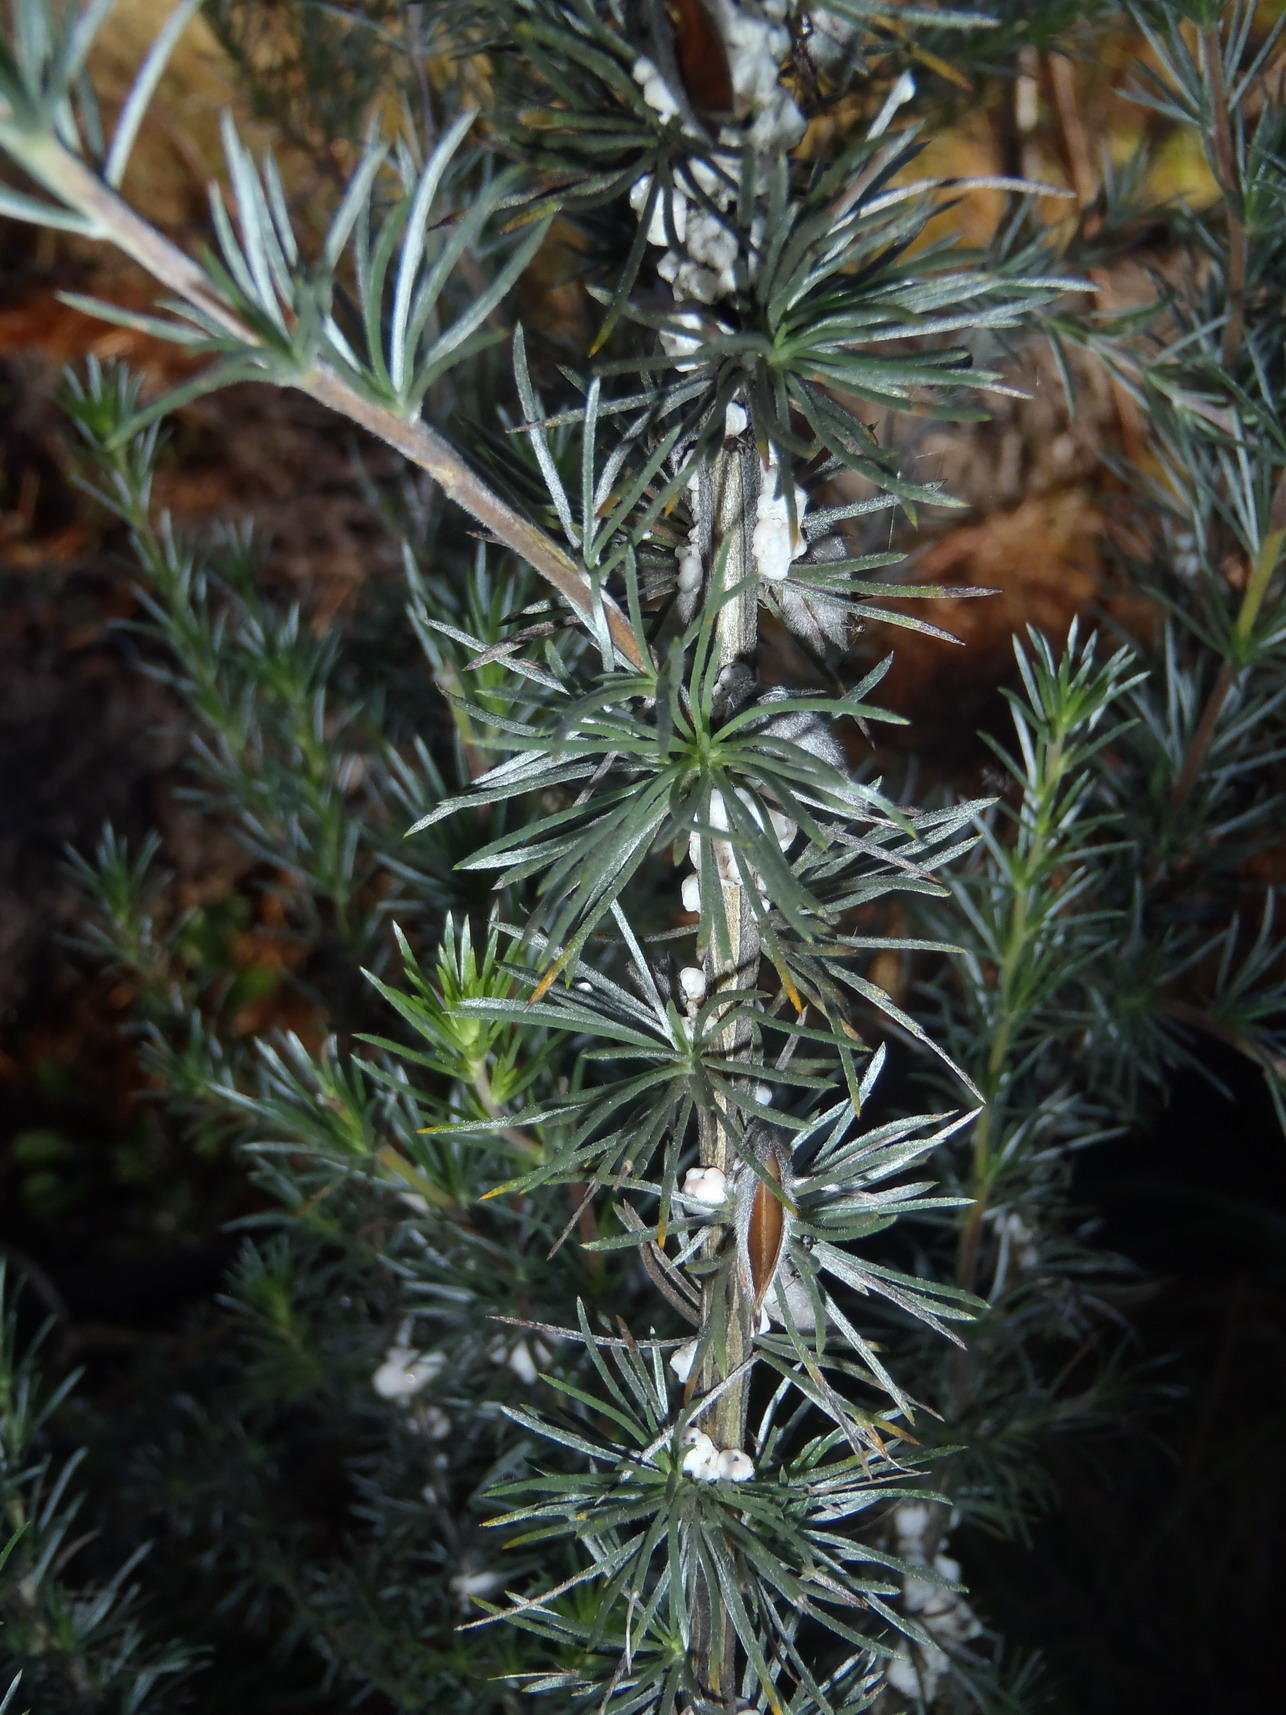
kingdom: Plantae
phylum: Tracheophyta
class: Magnoliopsida
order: Fabales
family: Fabaceae
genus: Aspalathus
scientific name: Aspalathus glabrescens
